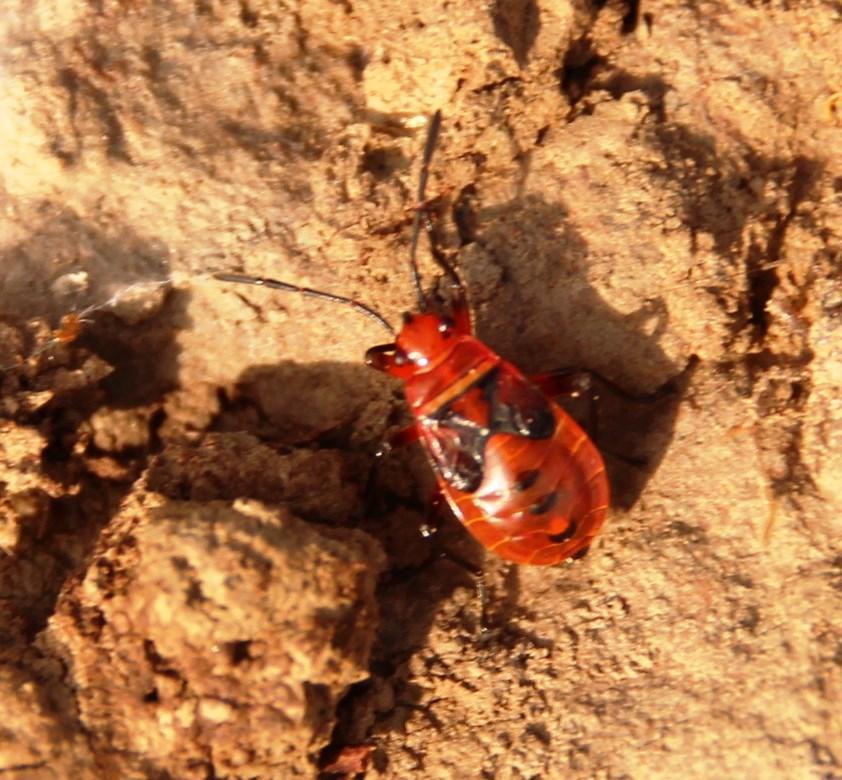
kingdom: Animalia
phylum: Arthropoda
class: Insecta
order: Hemiptera
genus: Cenaeus
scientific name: Cenaeus
